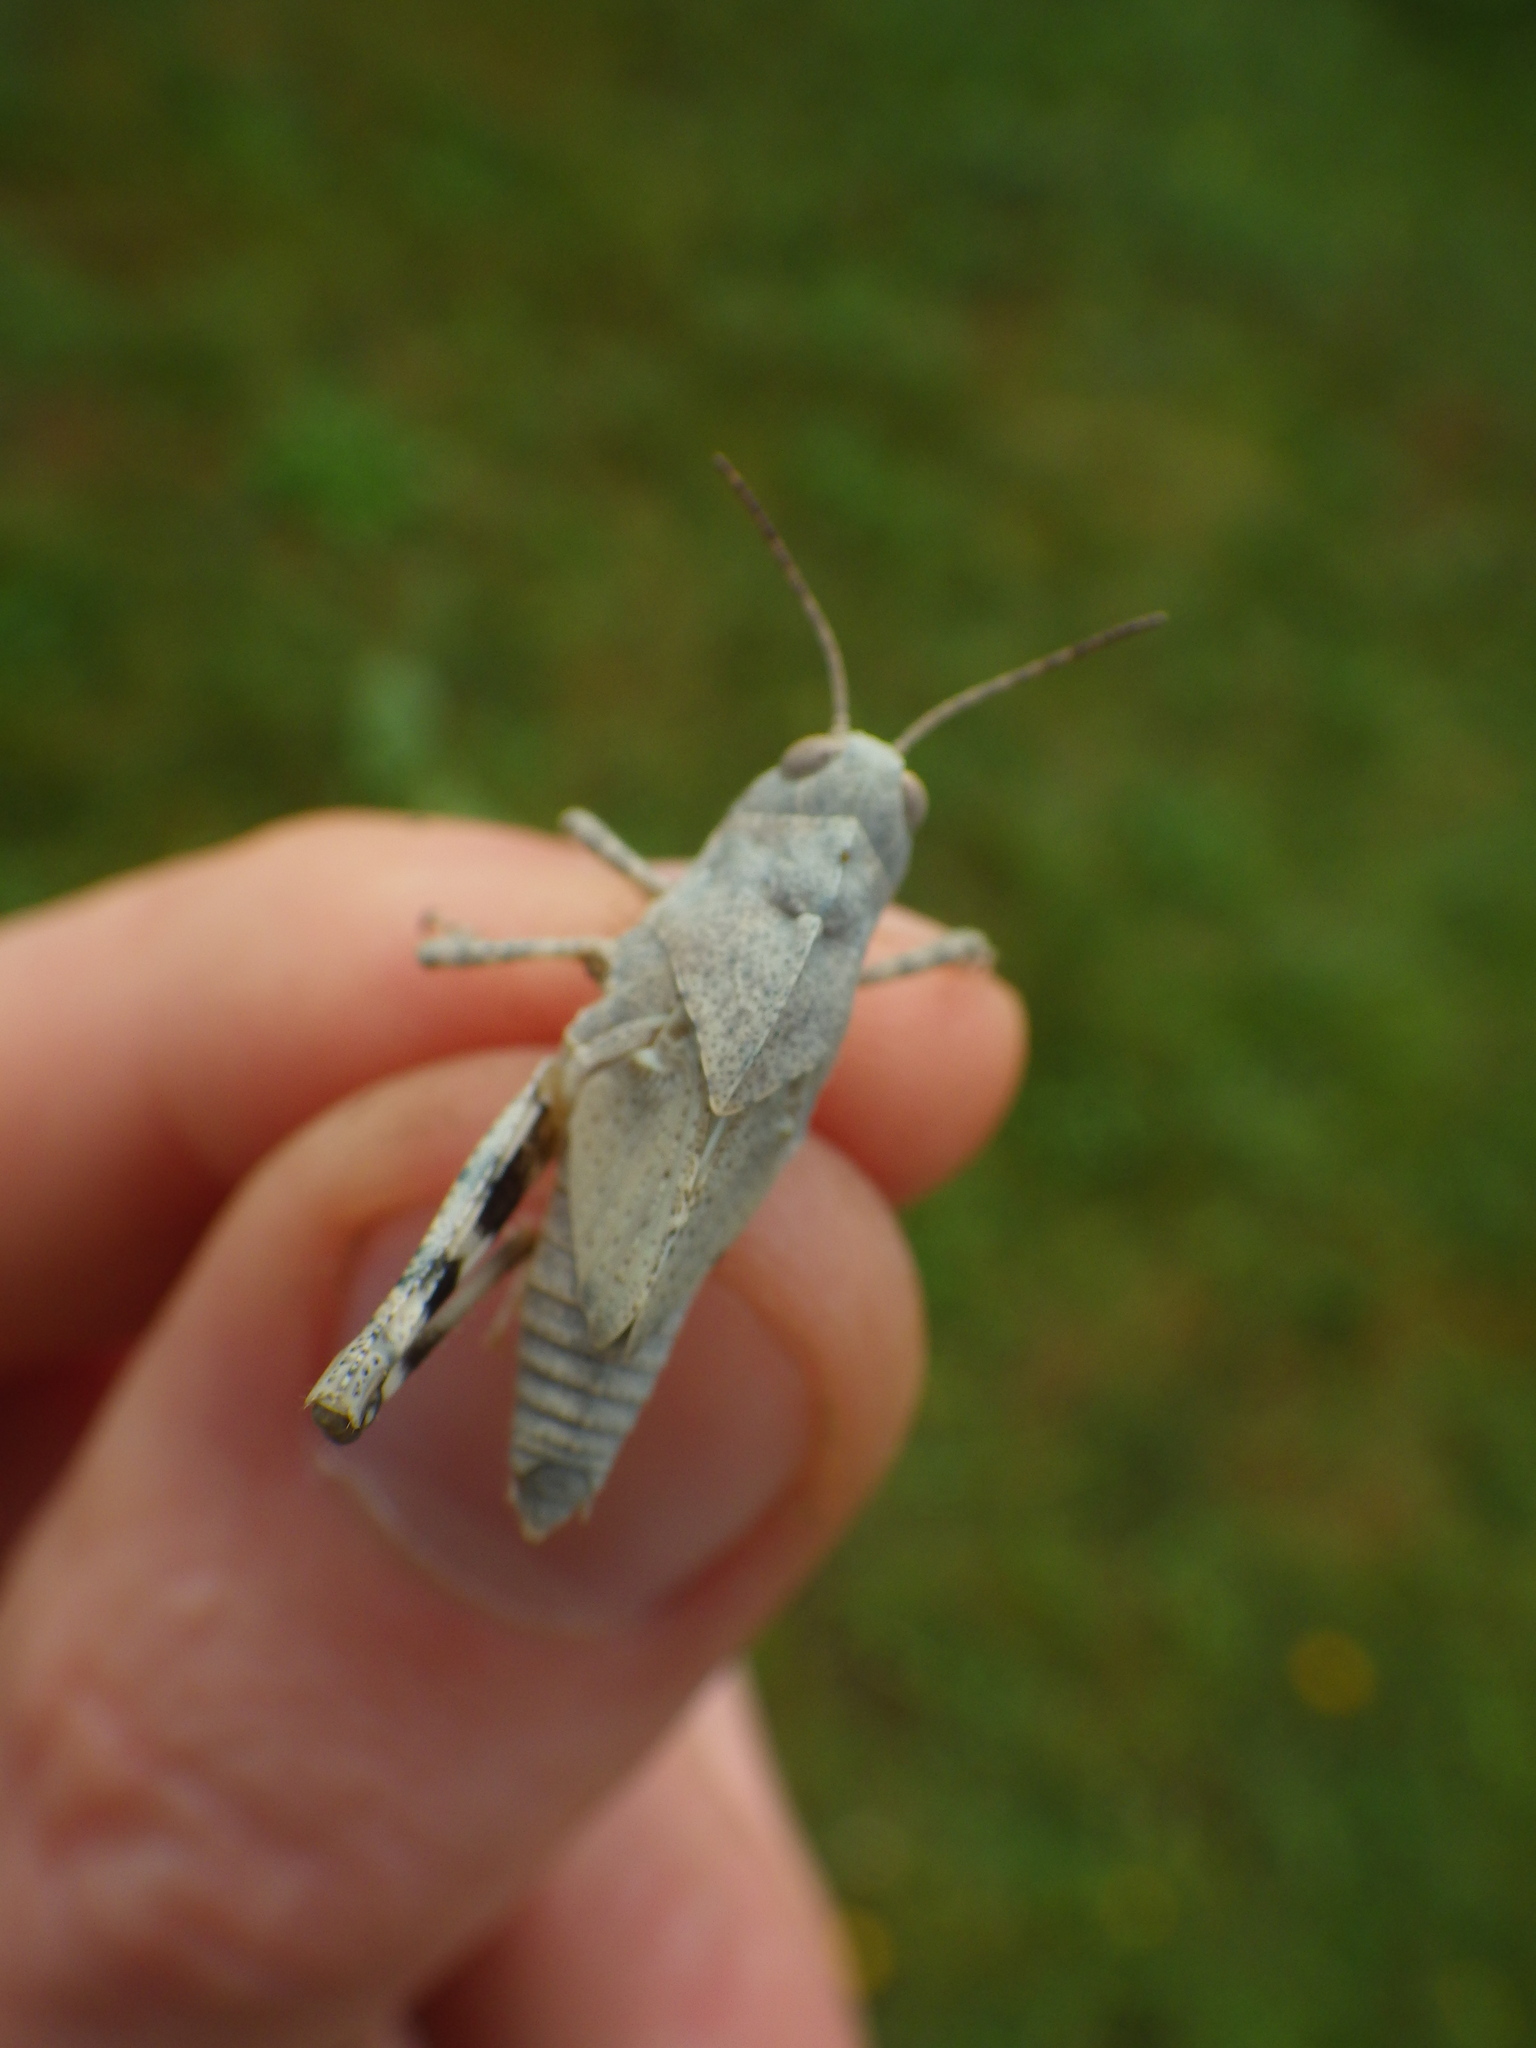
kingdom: Animalia
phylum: Arthropoda
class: Insecta
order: Orthoptera
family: Acrididae
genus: Dissosteira
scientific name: Dissosteira carolina
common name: Carolina grasshopper
